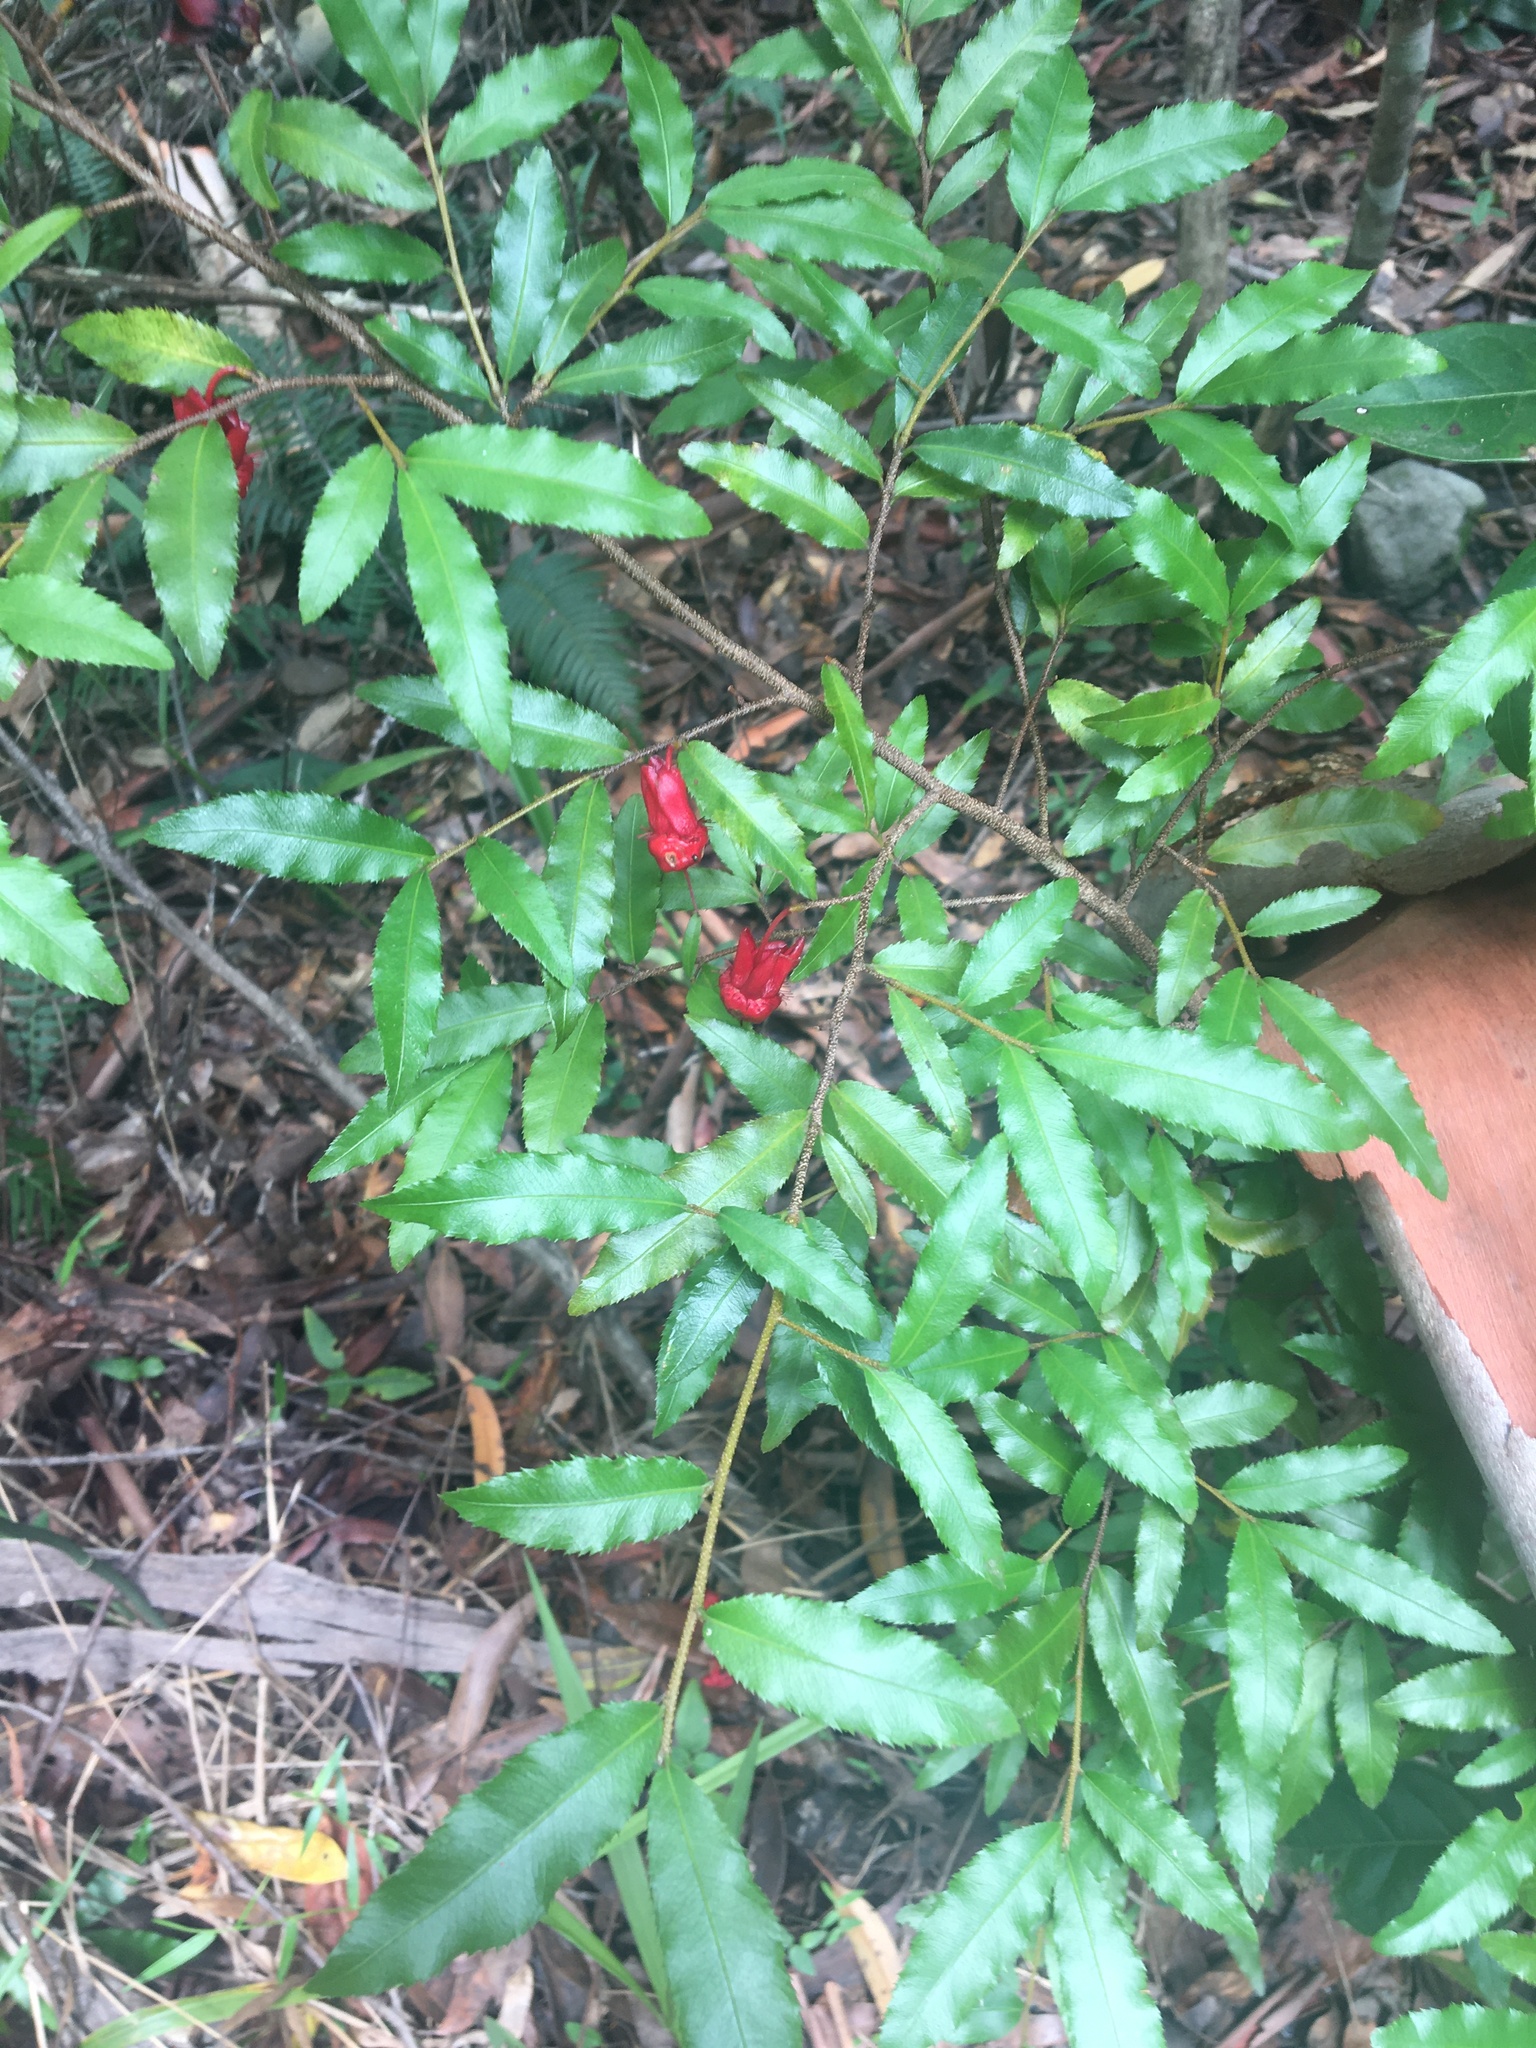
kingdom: Plantae
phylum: Tracheophyta
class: Magnoliopsida
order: Malpighiales
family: Ochnaceae
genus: Ochna
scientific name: Ochna serrulata
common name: Mickey mouse plant
